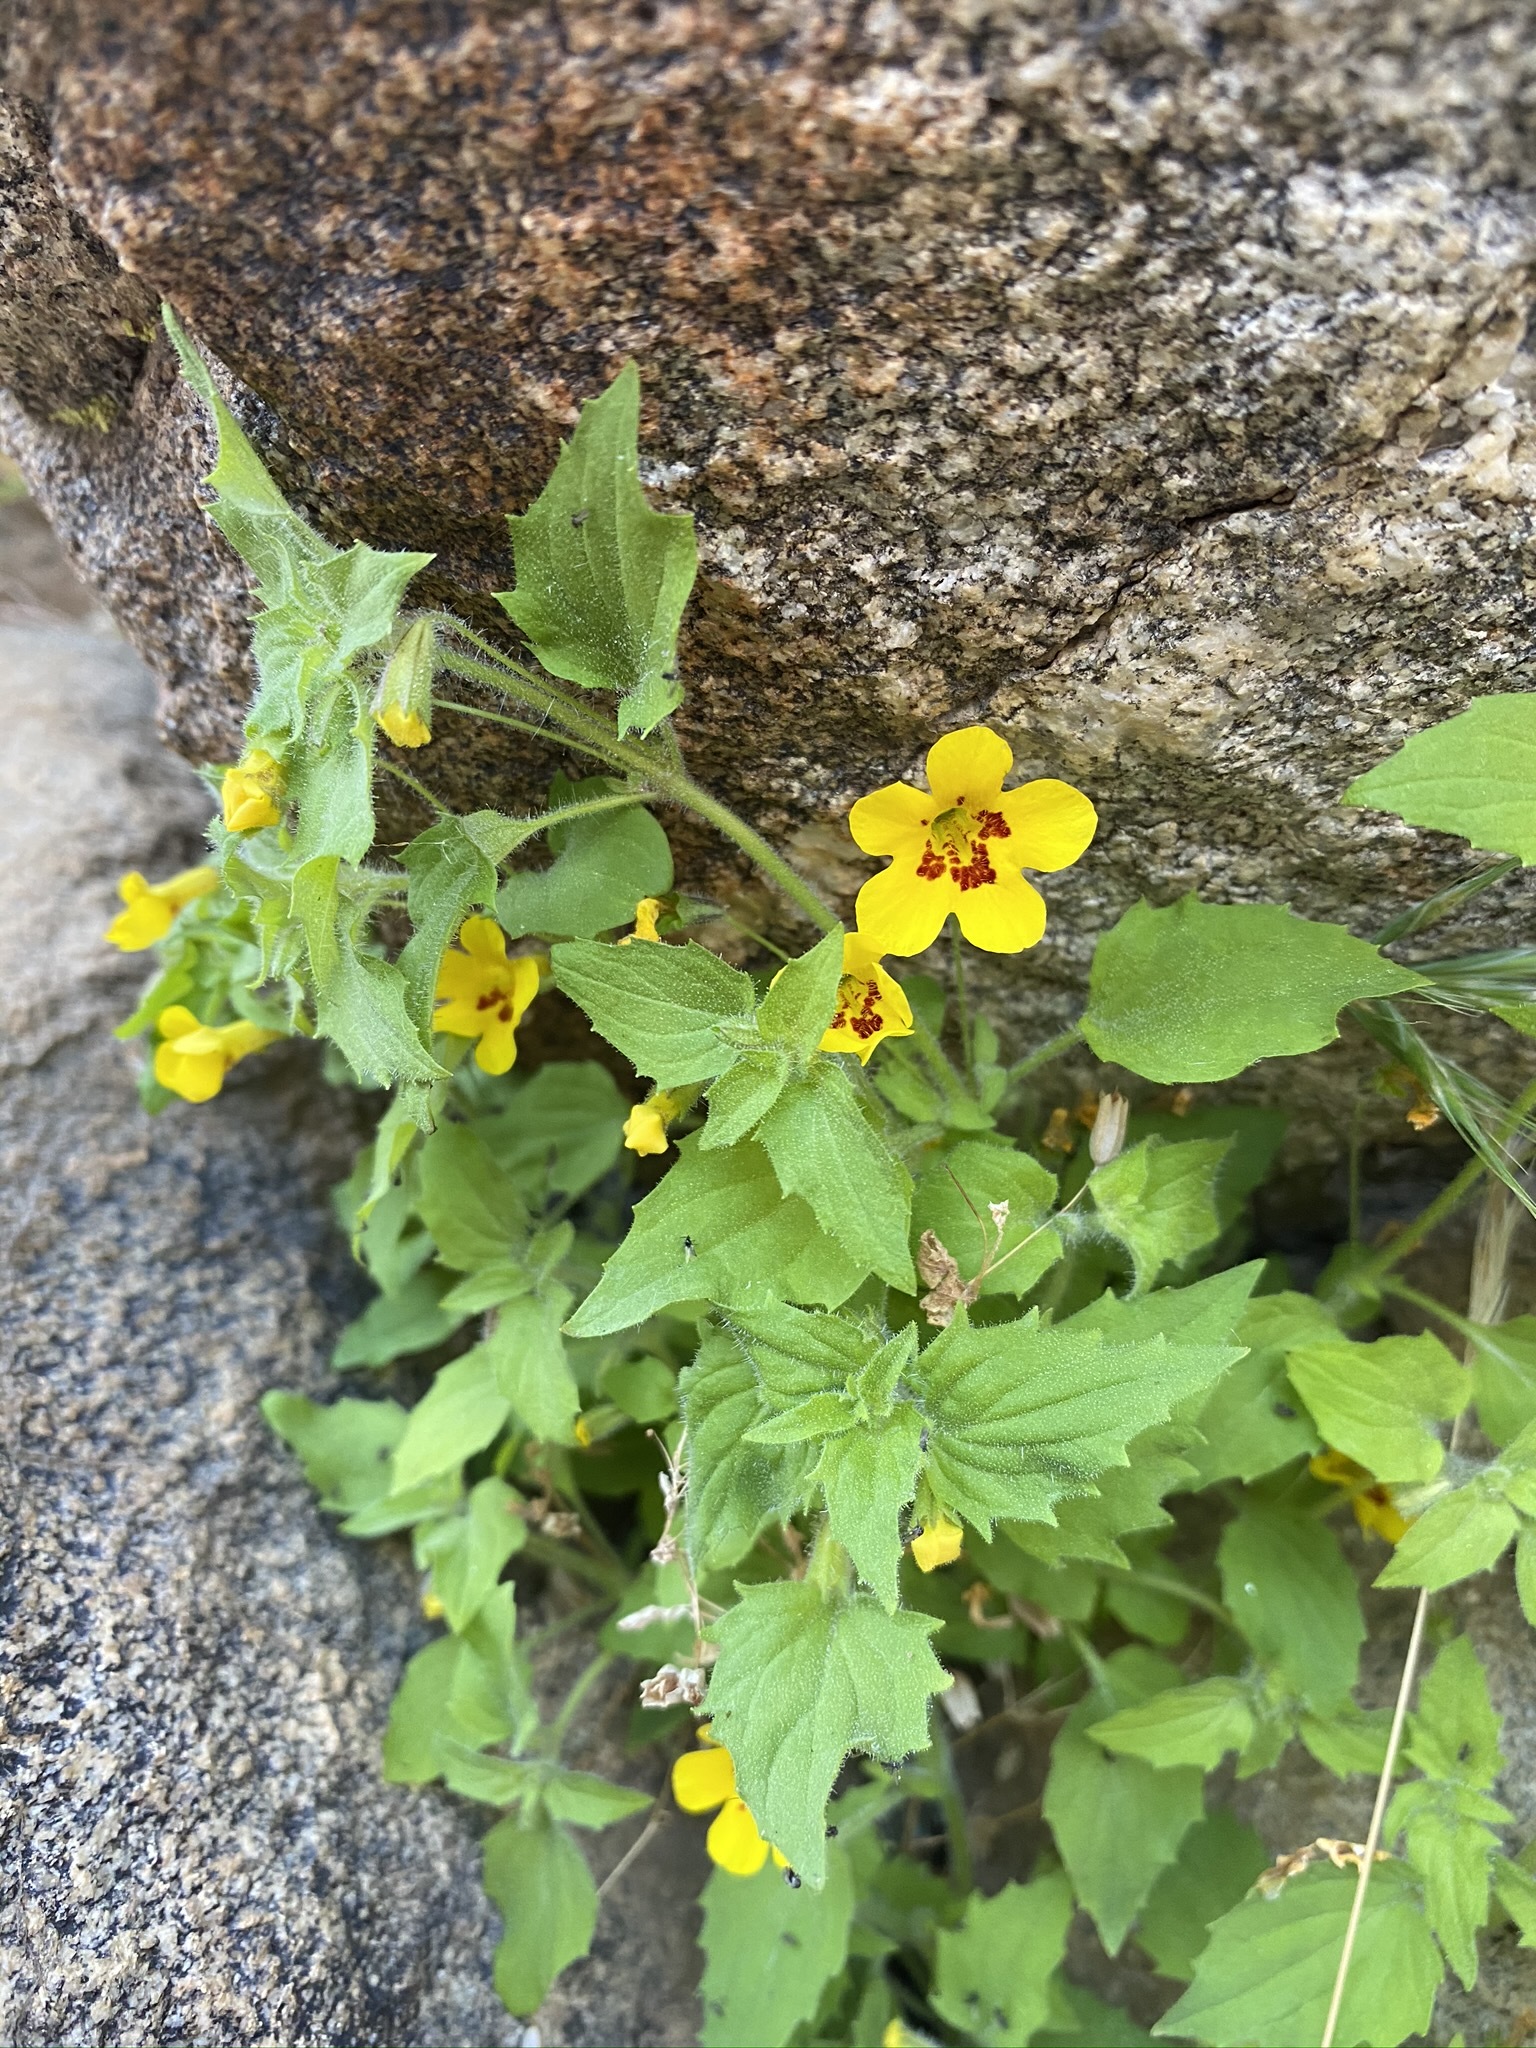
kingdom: Plantae
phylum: Tracheophyta
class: Magnoliopsida
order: Lamiales
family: Phrymaceae
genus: Erythranthe
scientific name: Erythranthe geniculata
